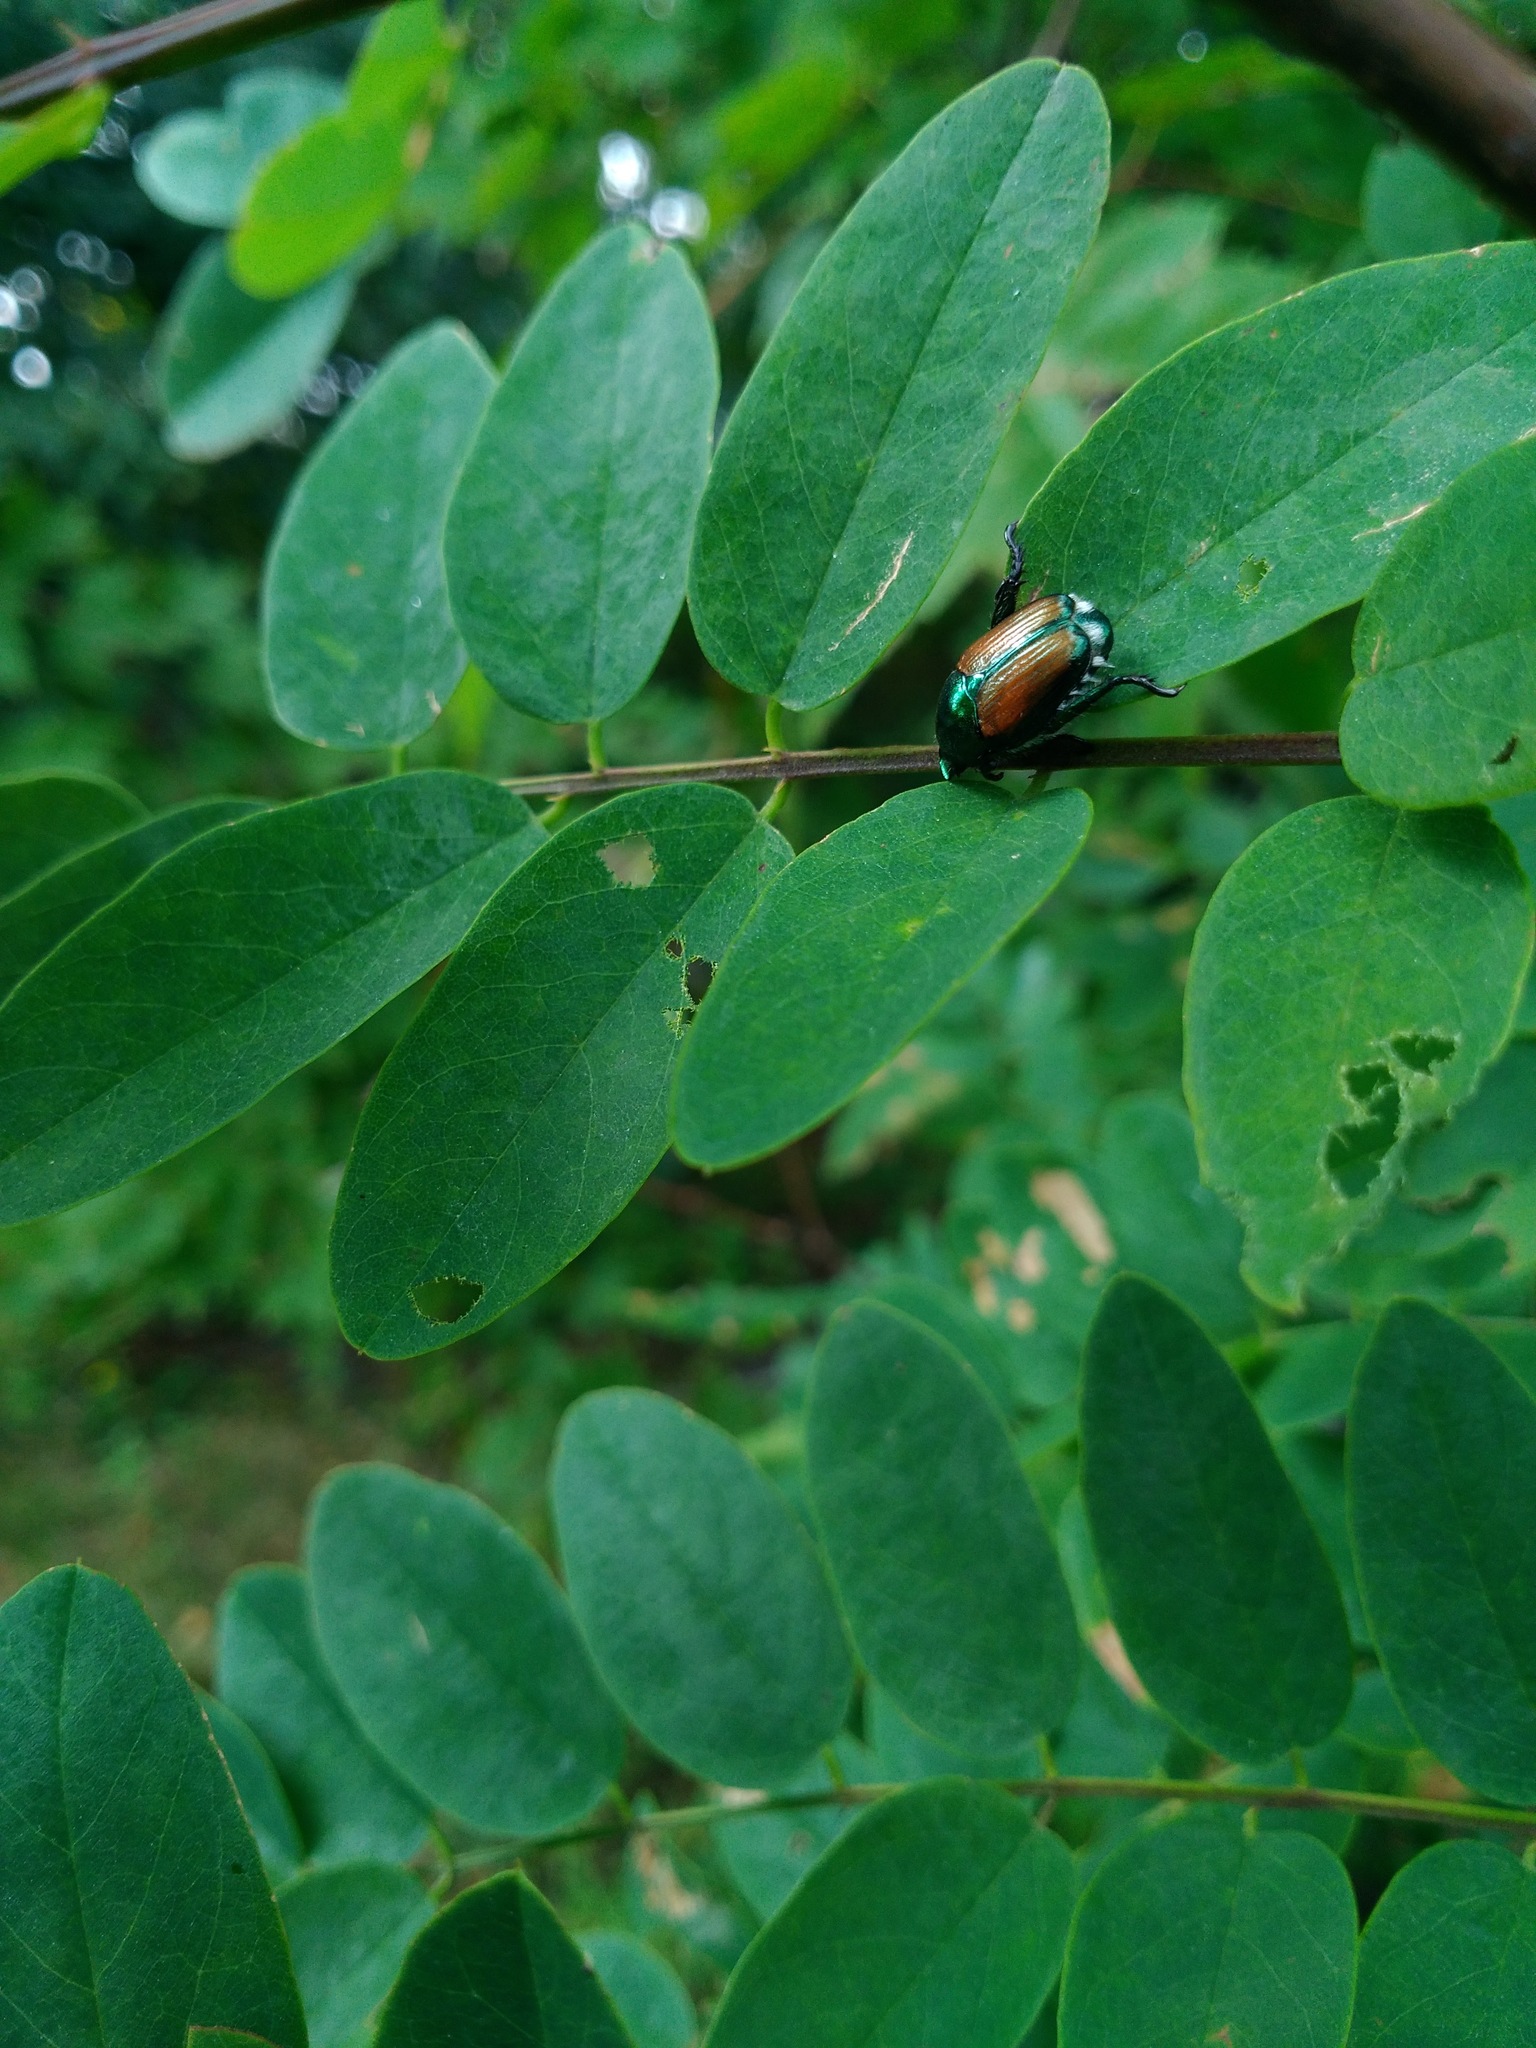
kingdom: Plantae
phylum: Tracheophyta
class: Magnoliopsida
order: Fabales
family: Fabaceae
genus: Robinia
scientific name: Robinia pseudoacacia
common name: Black locust
